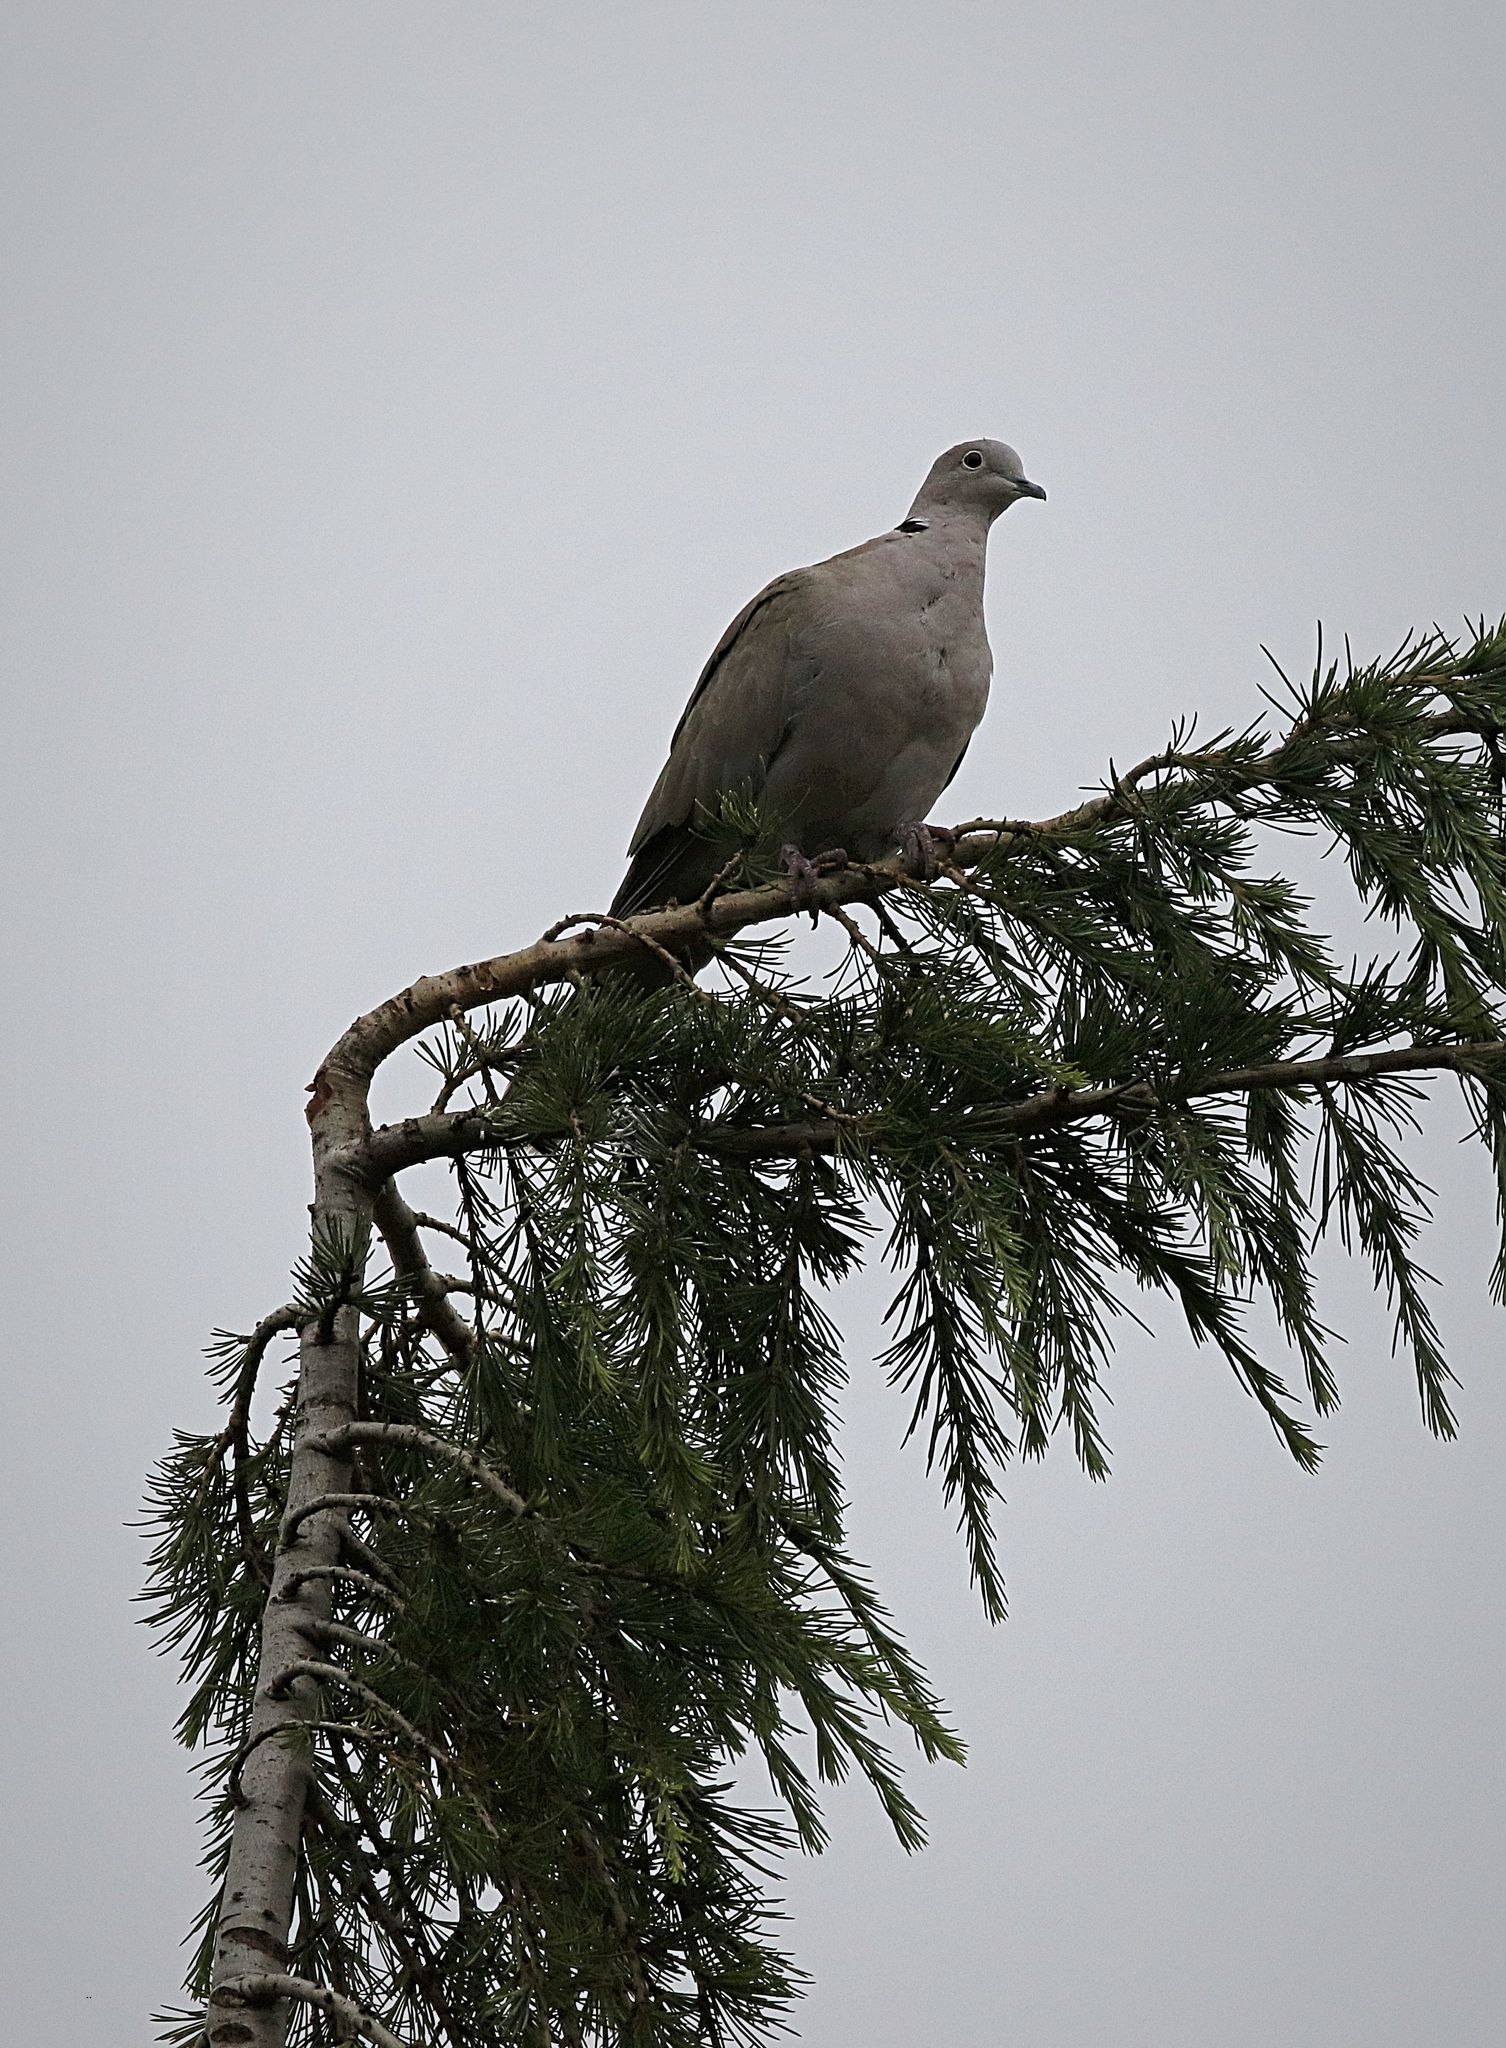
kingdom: Animalia
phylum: Chordata
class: Aves
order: Columbiformes
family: Columbidae
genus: Streptopelia
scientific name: Streptopelia decaocto
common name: Eurasian collared dove
